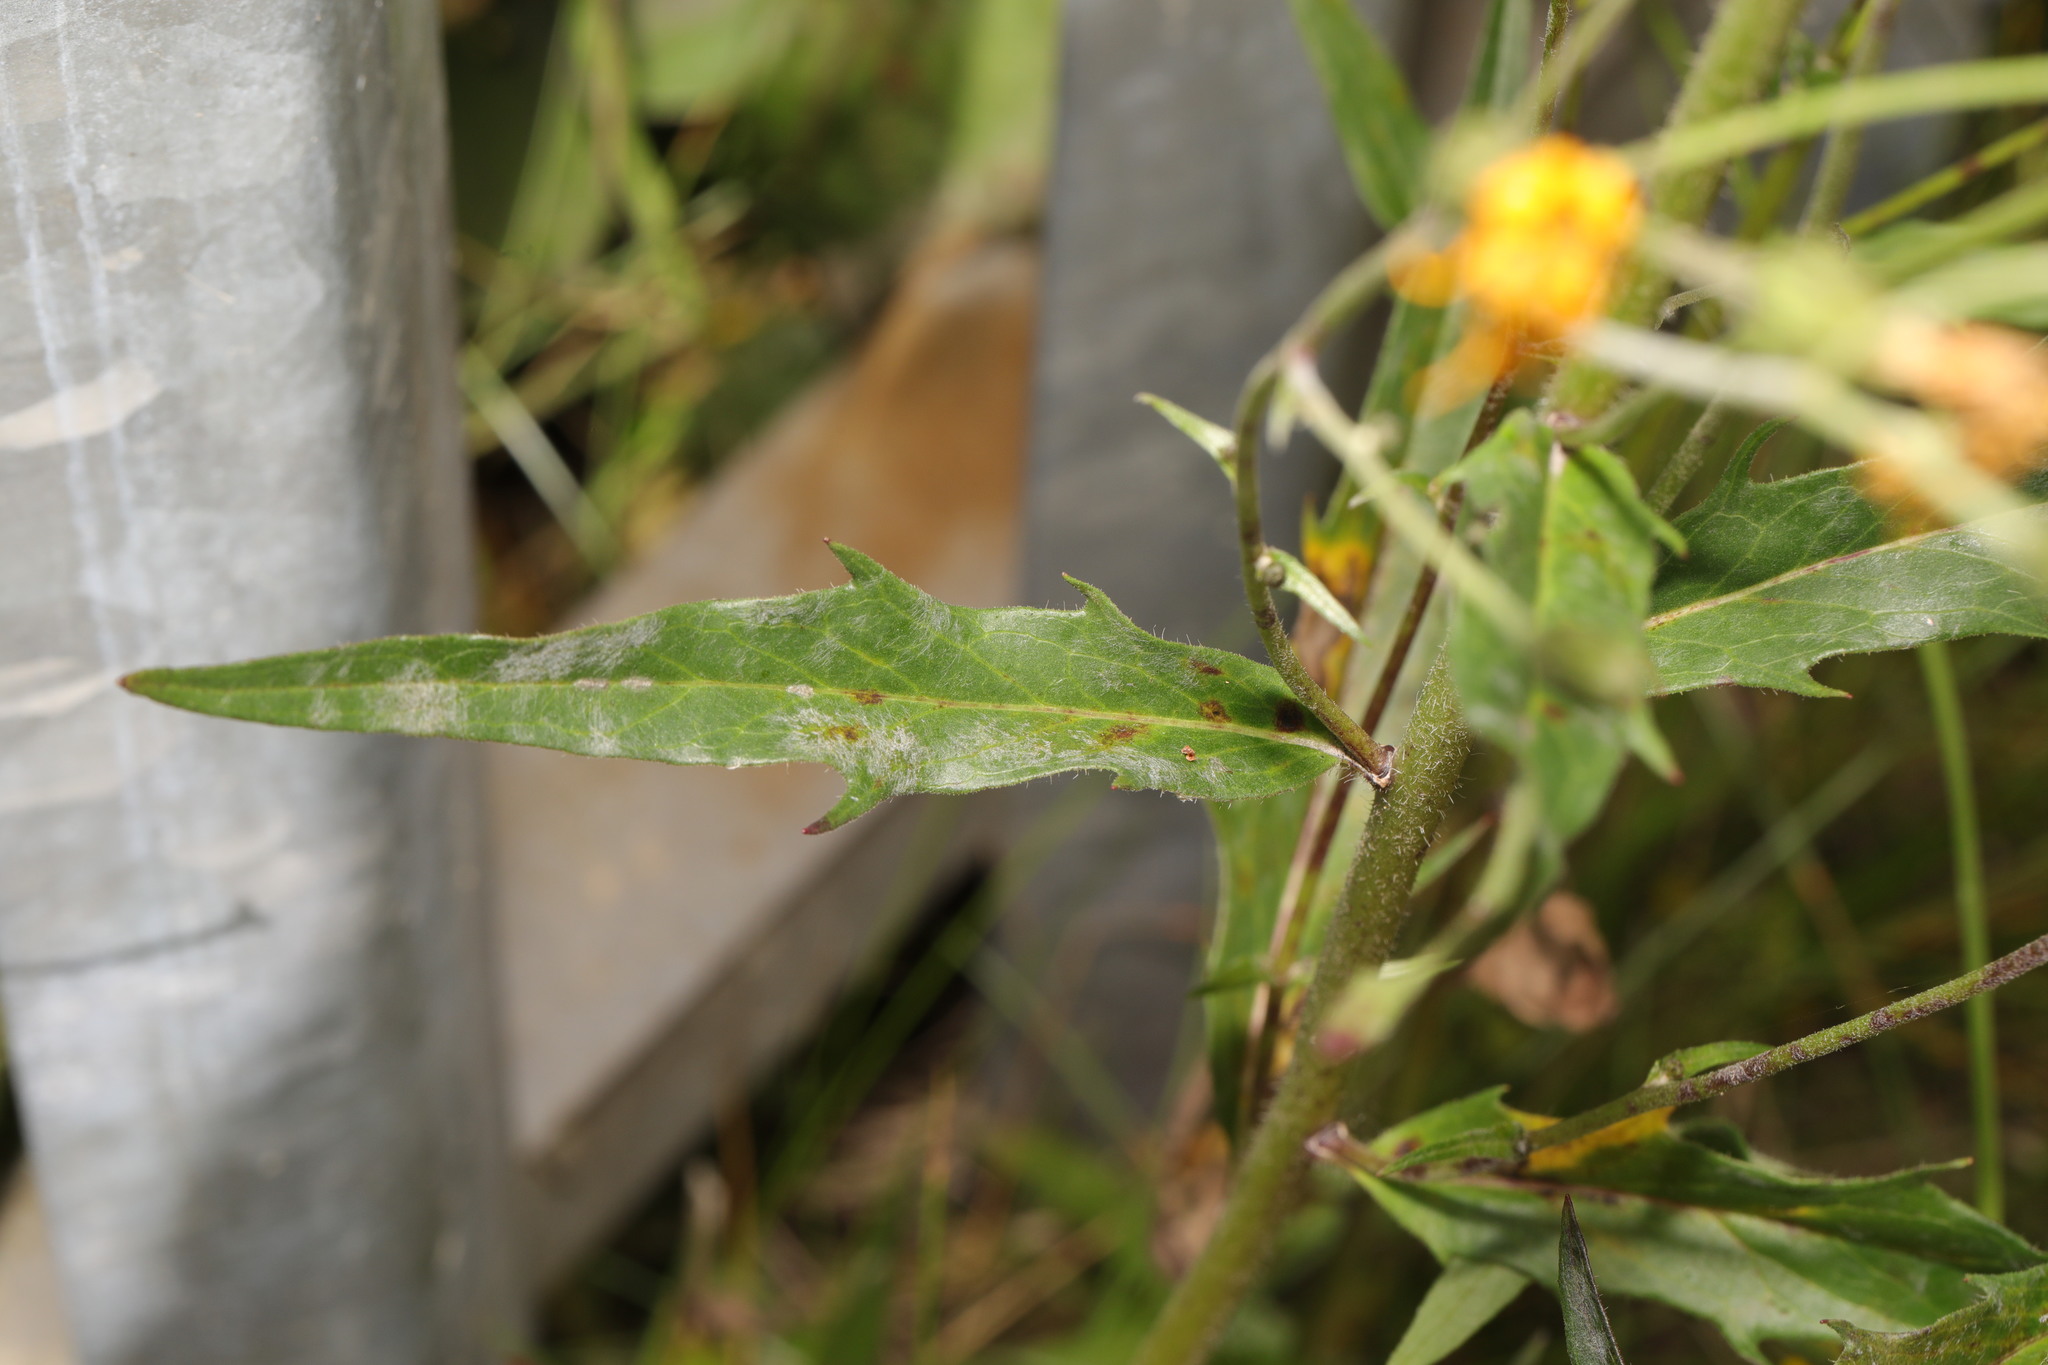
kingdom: Fungi
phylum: Ascomycota
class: Leotiomycetes
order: Helotiales
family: Erysiphaceae
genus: Neoerysiphe
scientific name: Neoerysiphe nevoi
